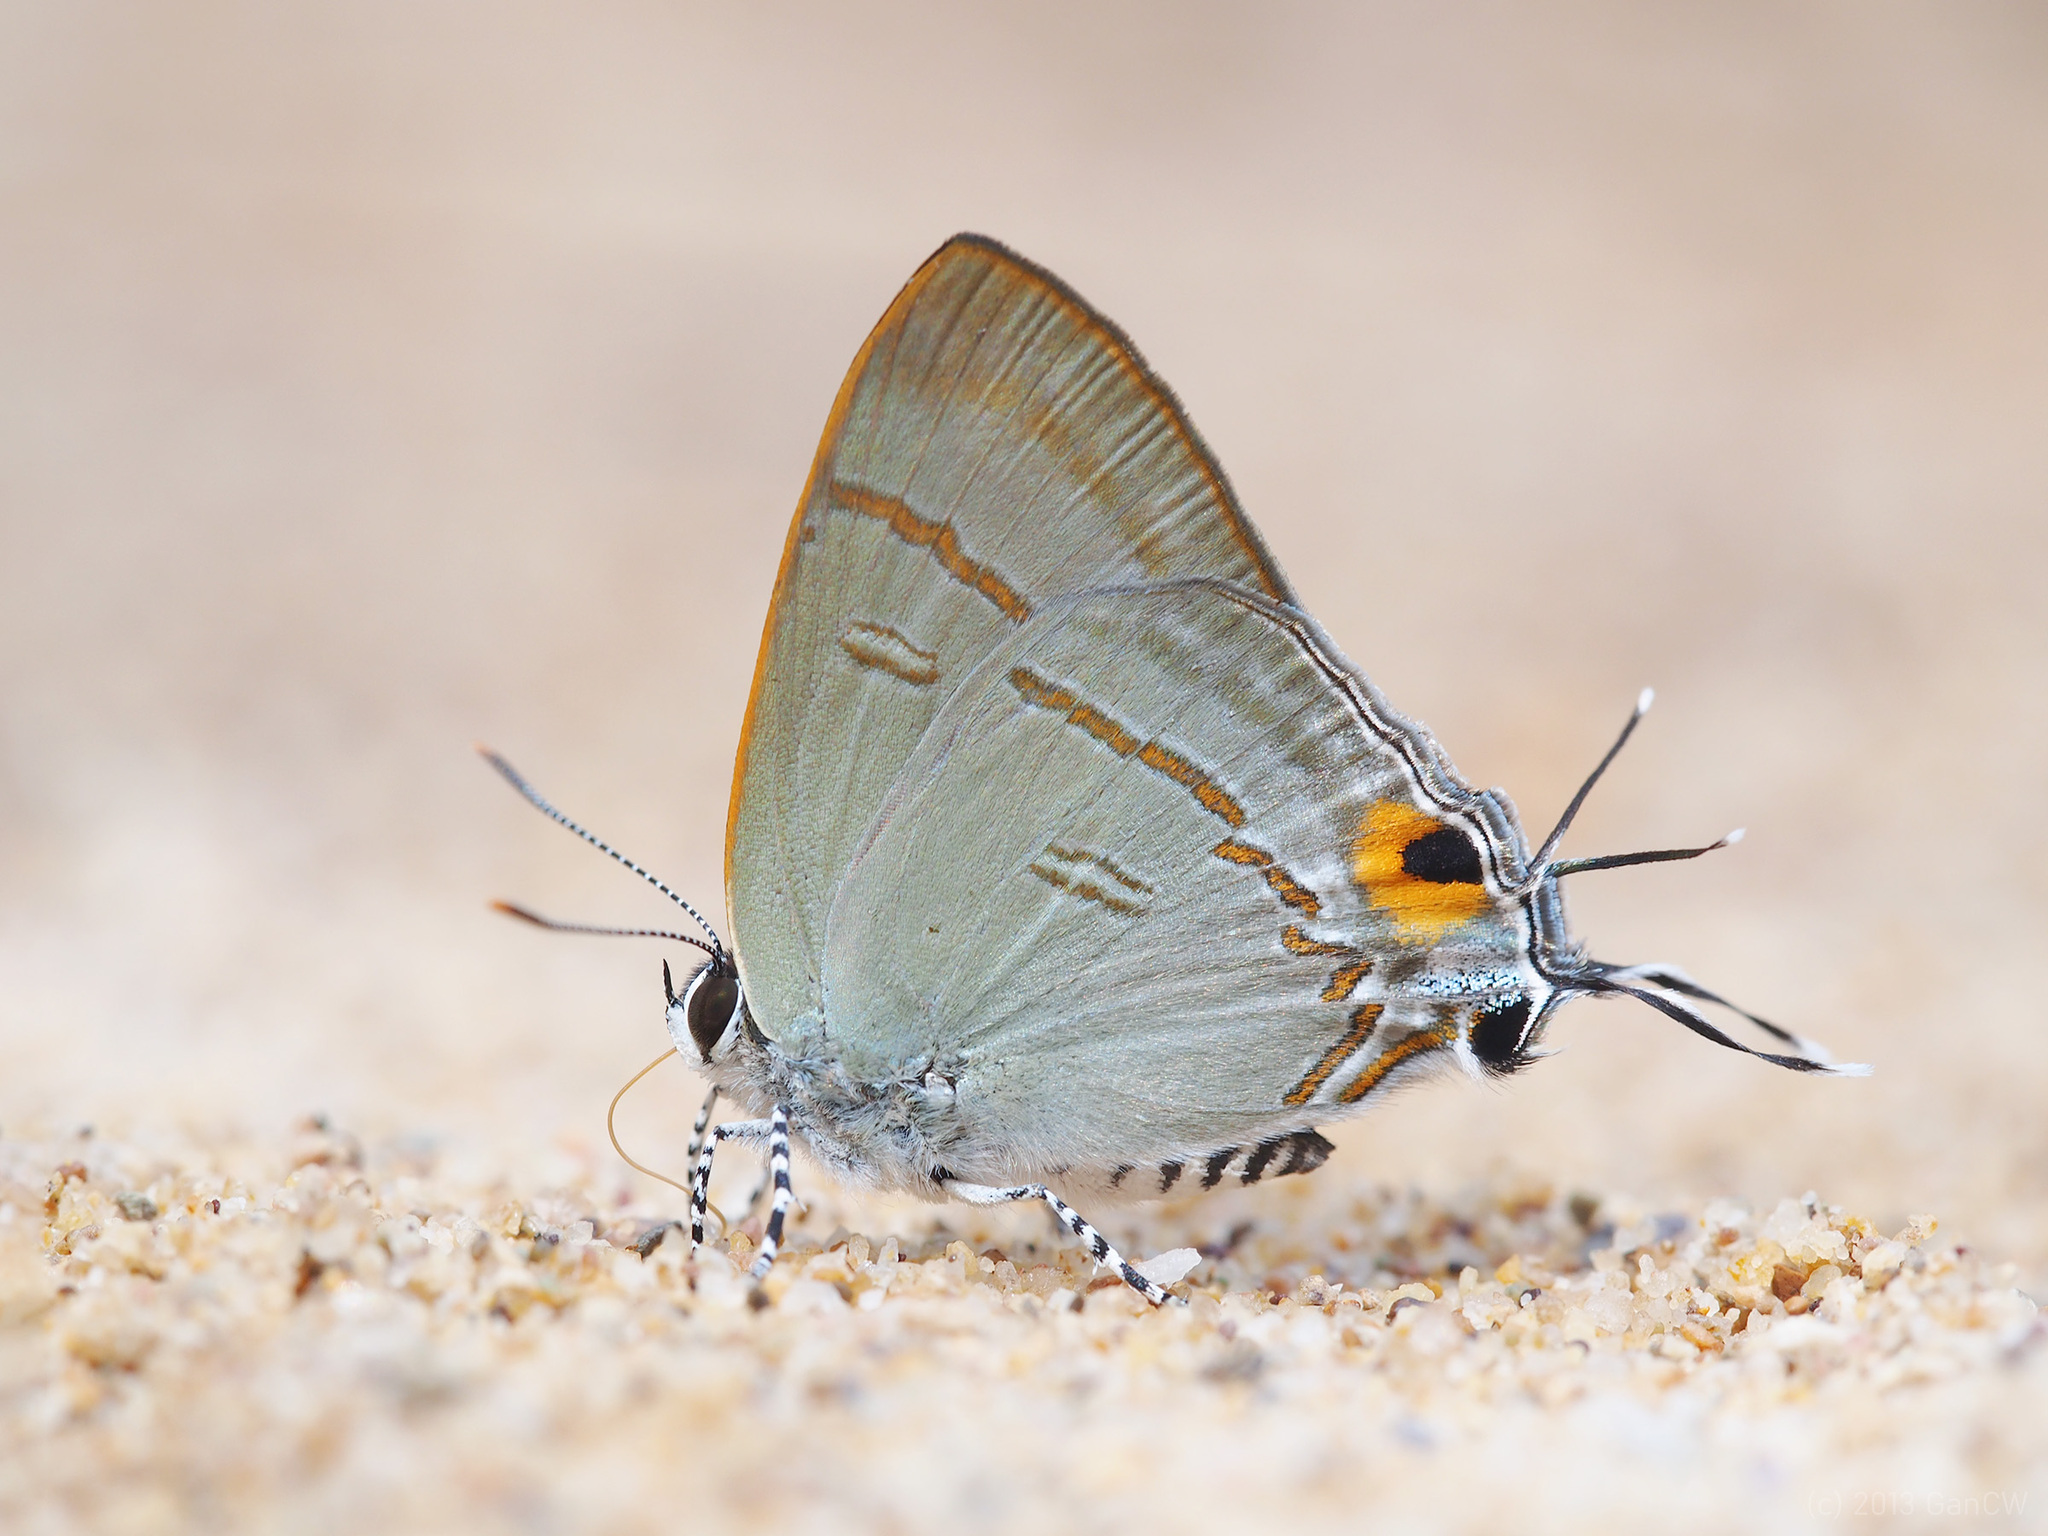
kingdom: Animalia
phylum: Arthropoda
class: Insecta
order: Lepidoptera
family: Lycaenidae
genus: Hypolycaena
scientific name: Hypolycaena erylus
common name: Common tit
